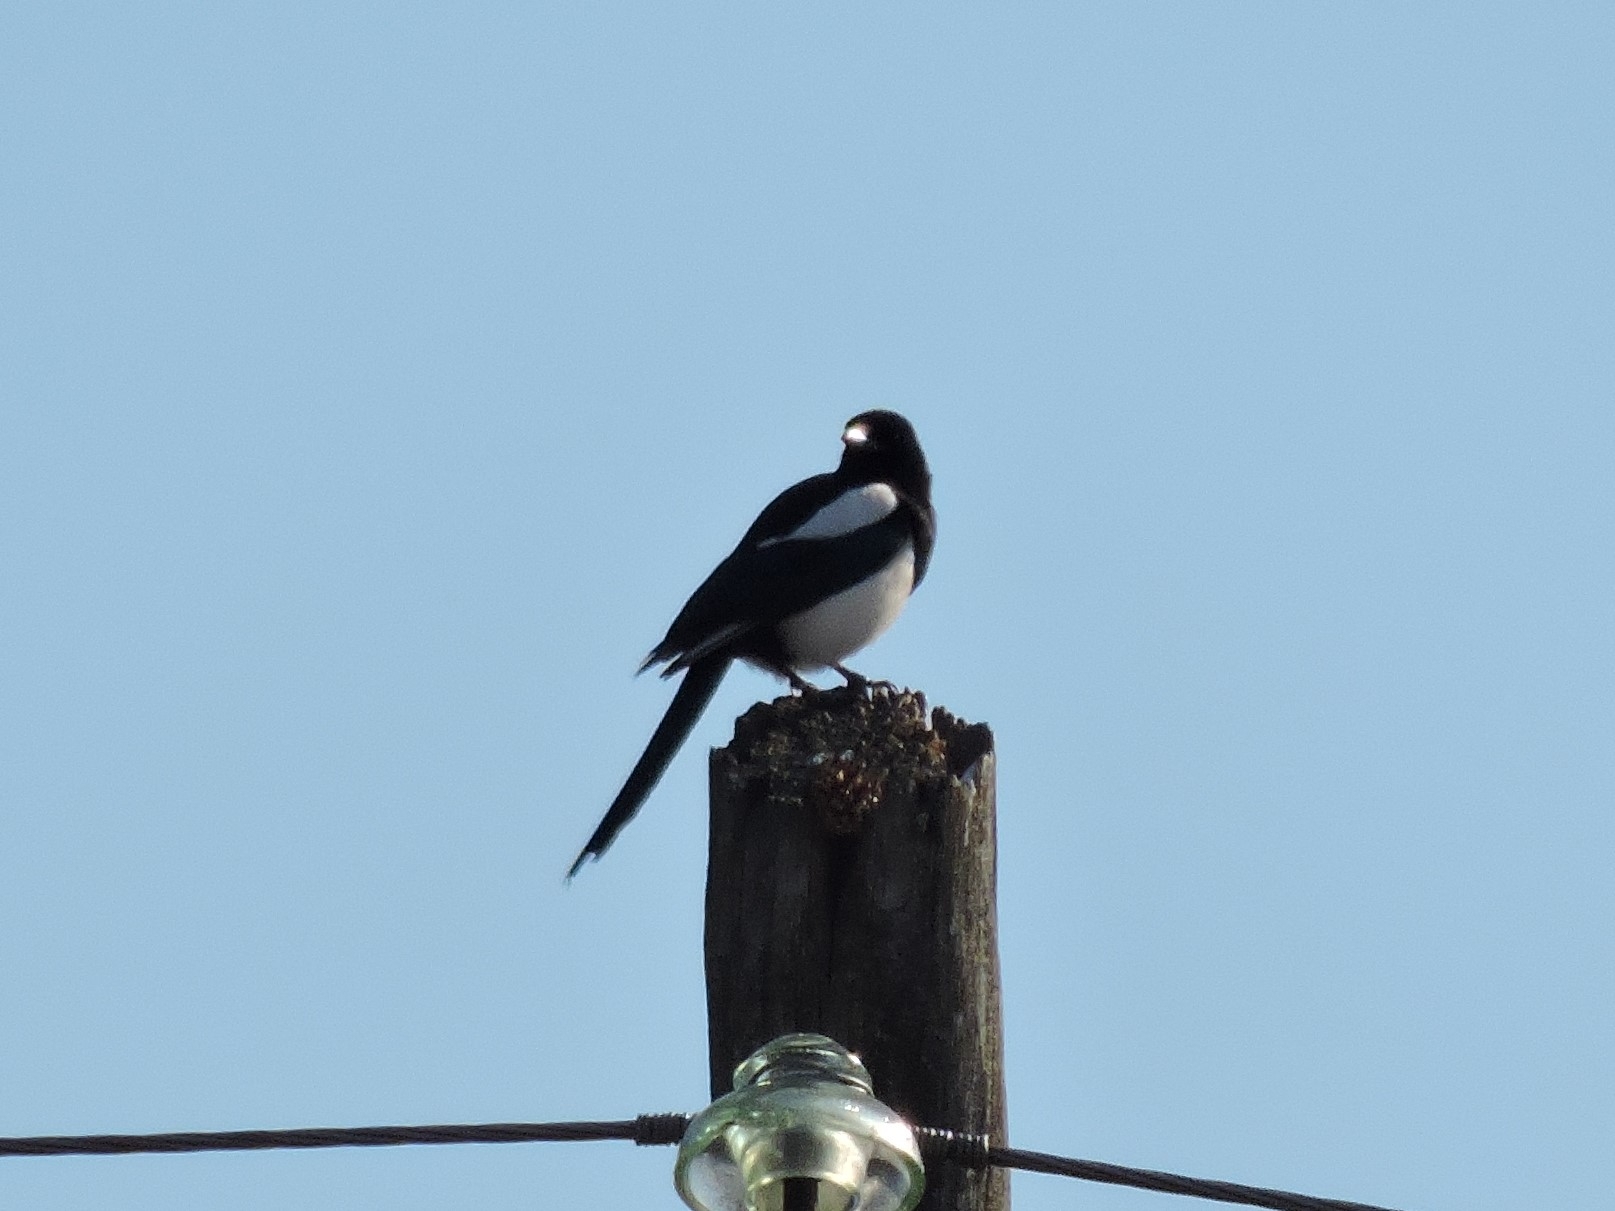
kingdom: Animalia
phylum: Chordata
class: Aves
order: Passeriformes
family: Corvidae
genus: Pica
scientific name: Pica pica
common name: Eurasian magpie
